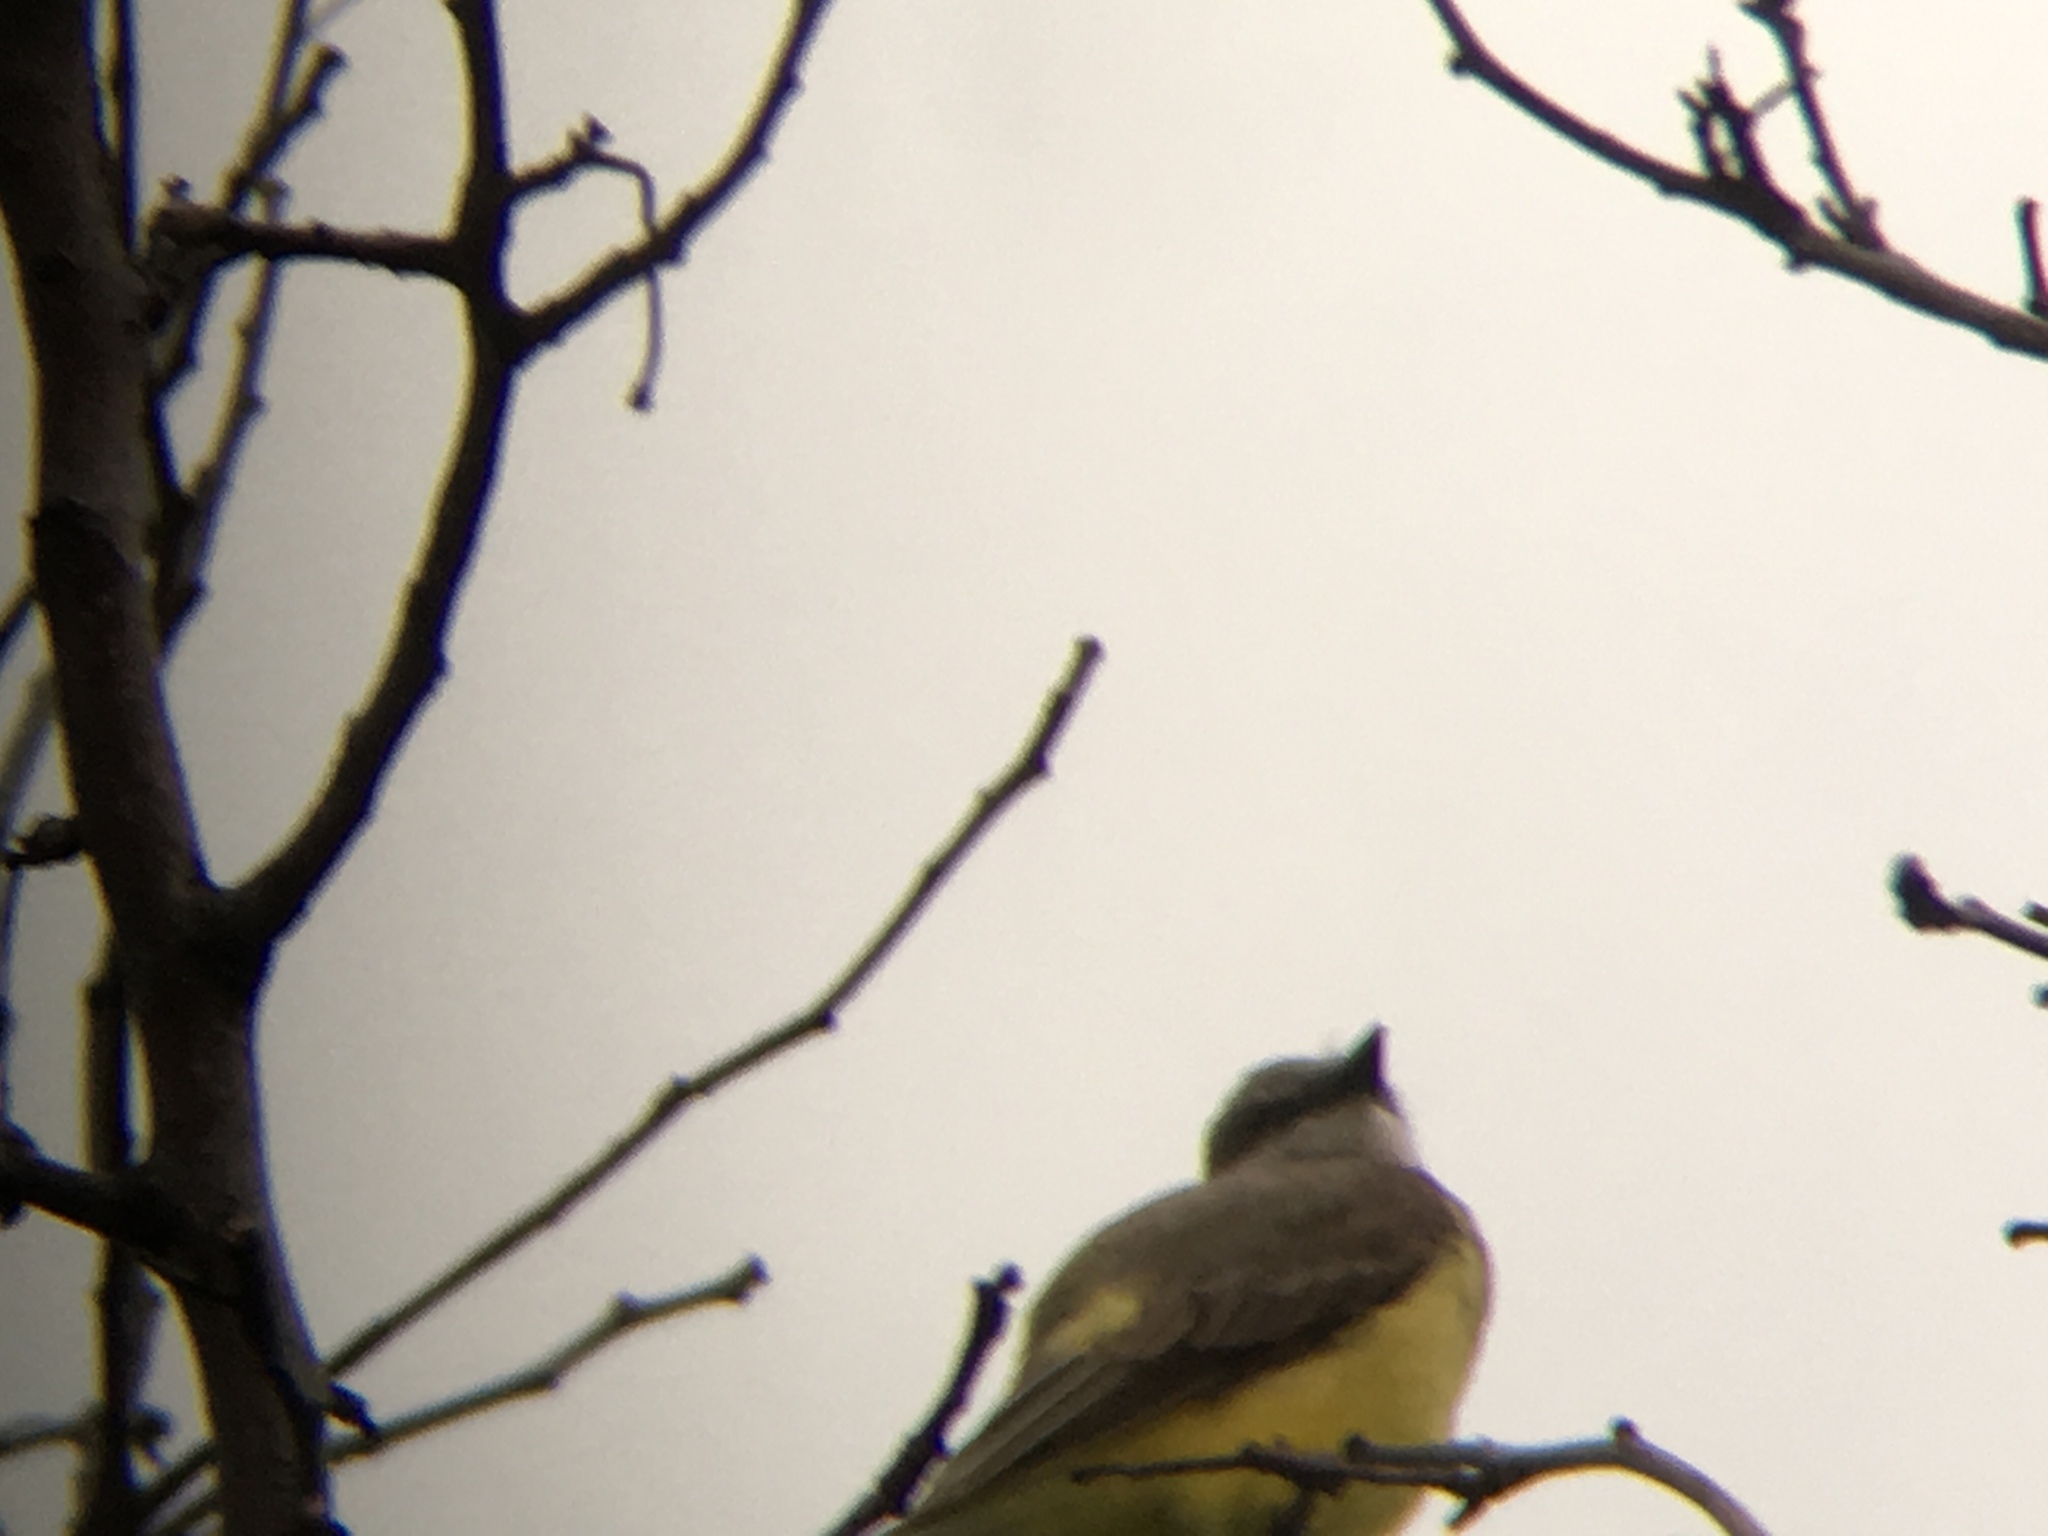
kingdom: Animalia
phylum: Chordata
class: Aves
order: Passeriformes
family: Tyrannidae
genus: Tyrannus
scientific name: Tyrannus verticalis
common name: Western kingbird
